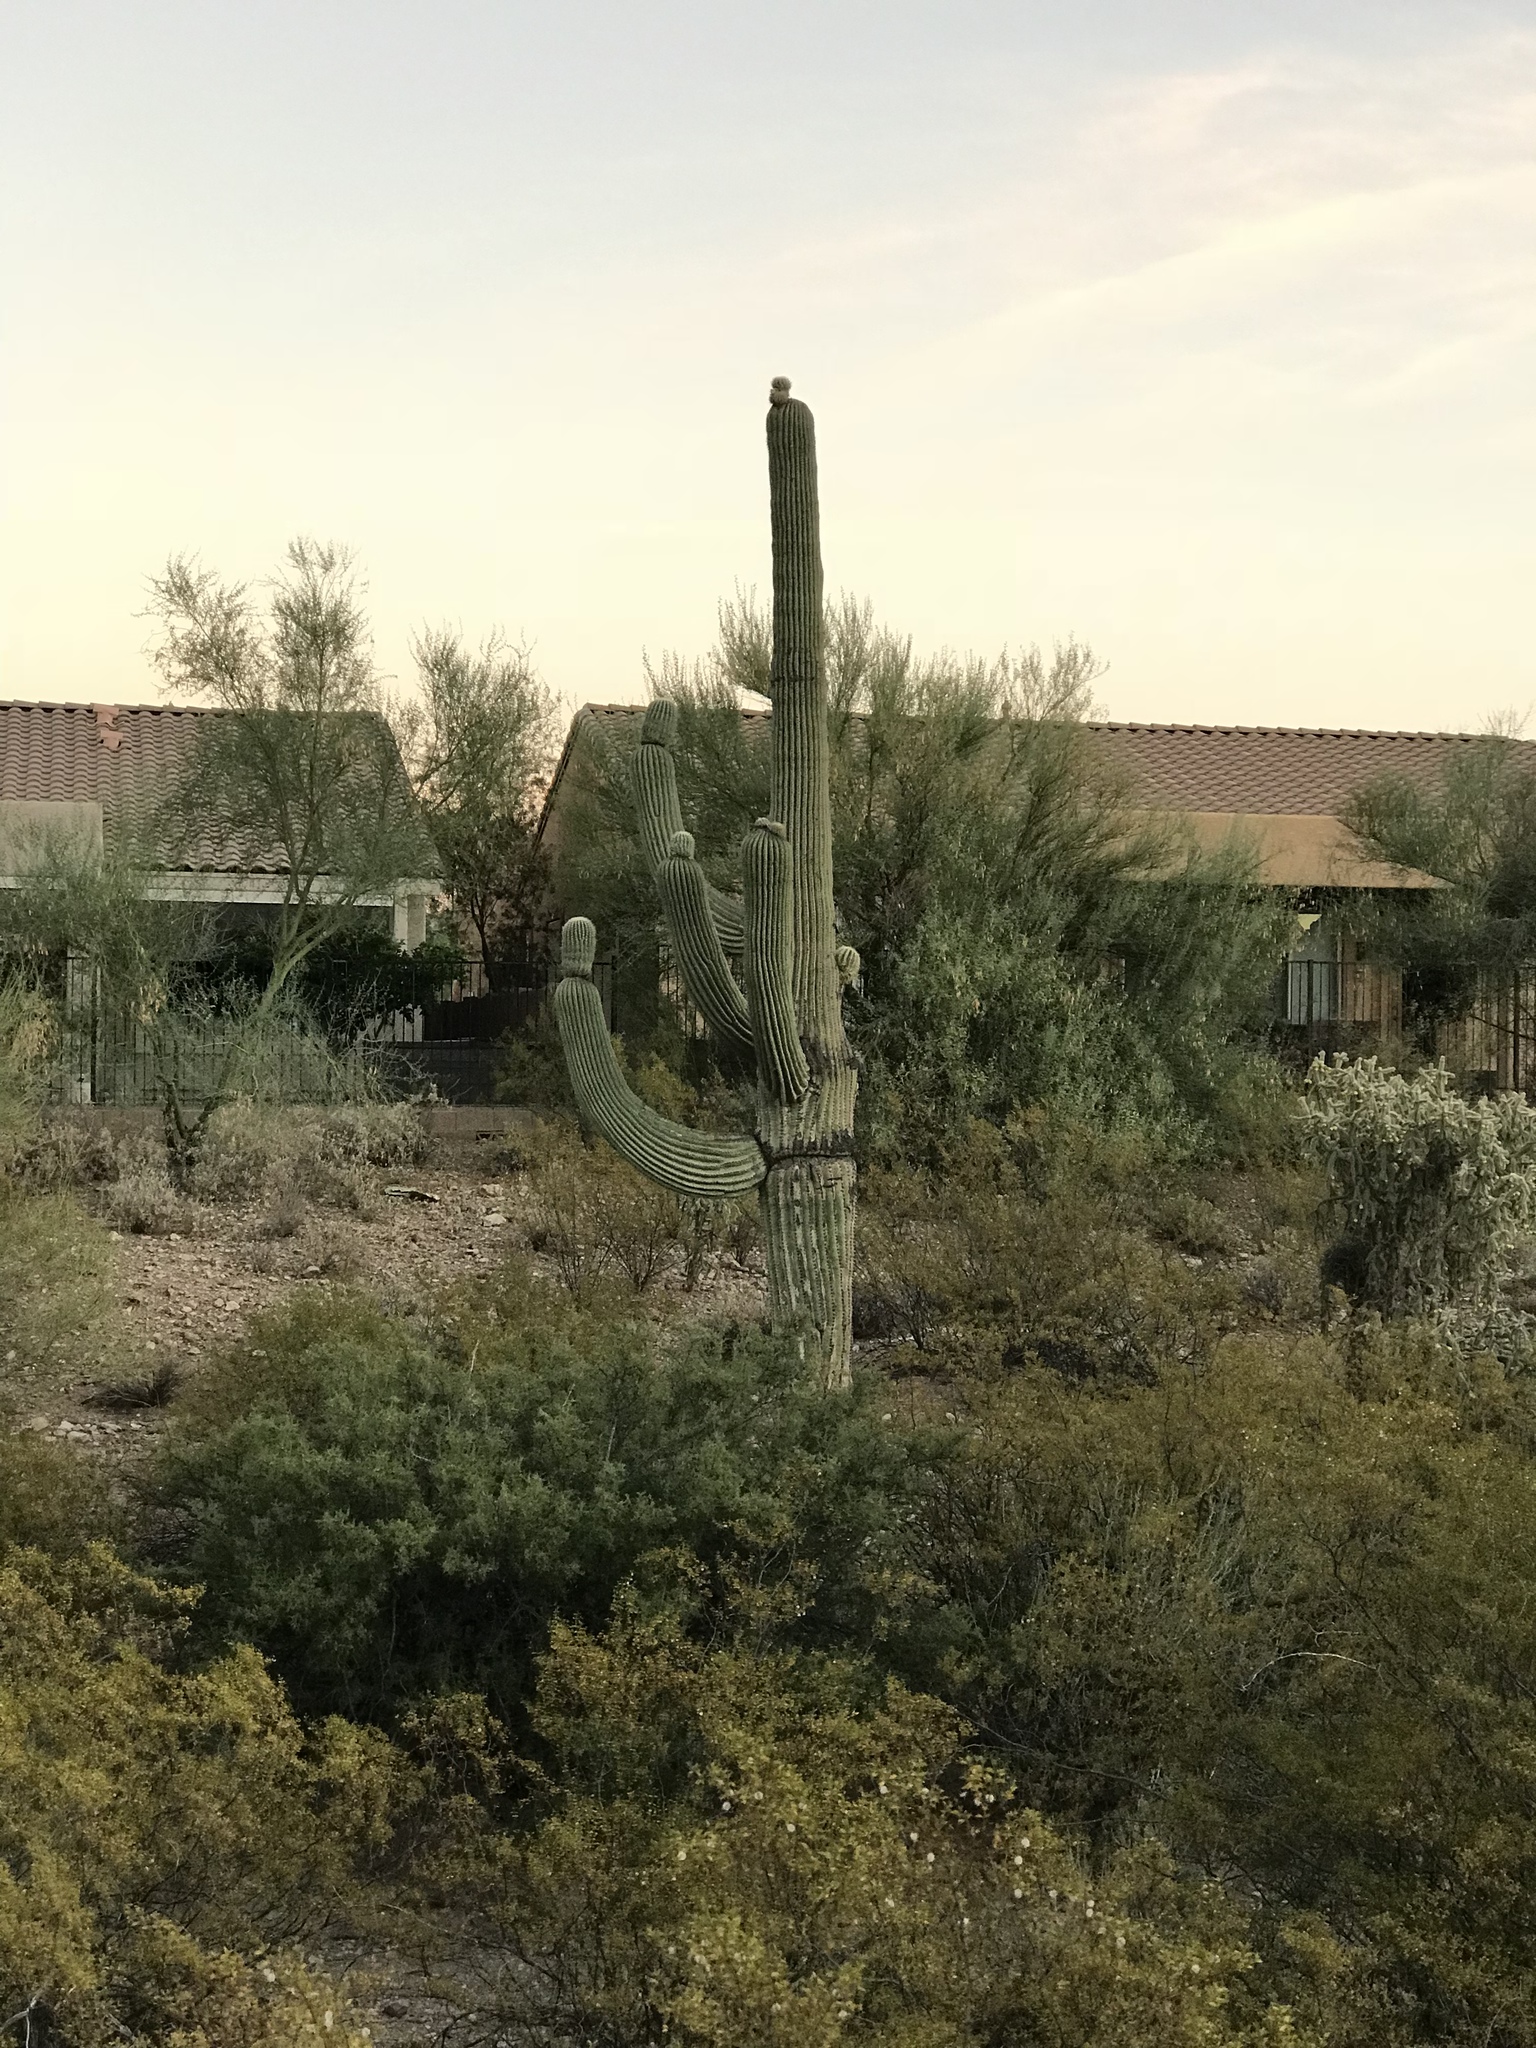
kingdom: Plantae
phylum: Tracheophyta
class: Magnoliopsida
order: Caryophyllales
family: Cactaceae
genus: Carnegiea
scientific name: Carnegiea gigantea
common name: Saguaro
